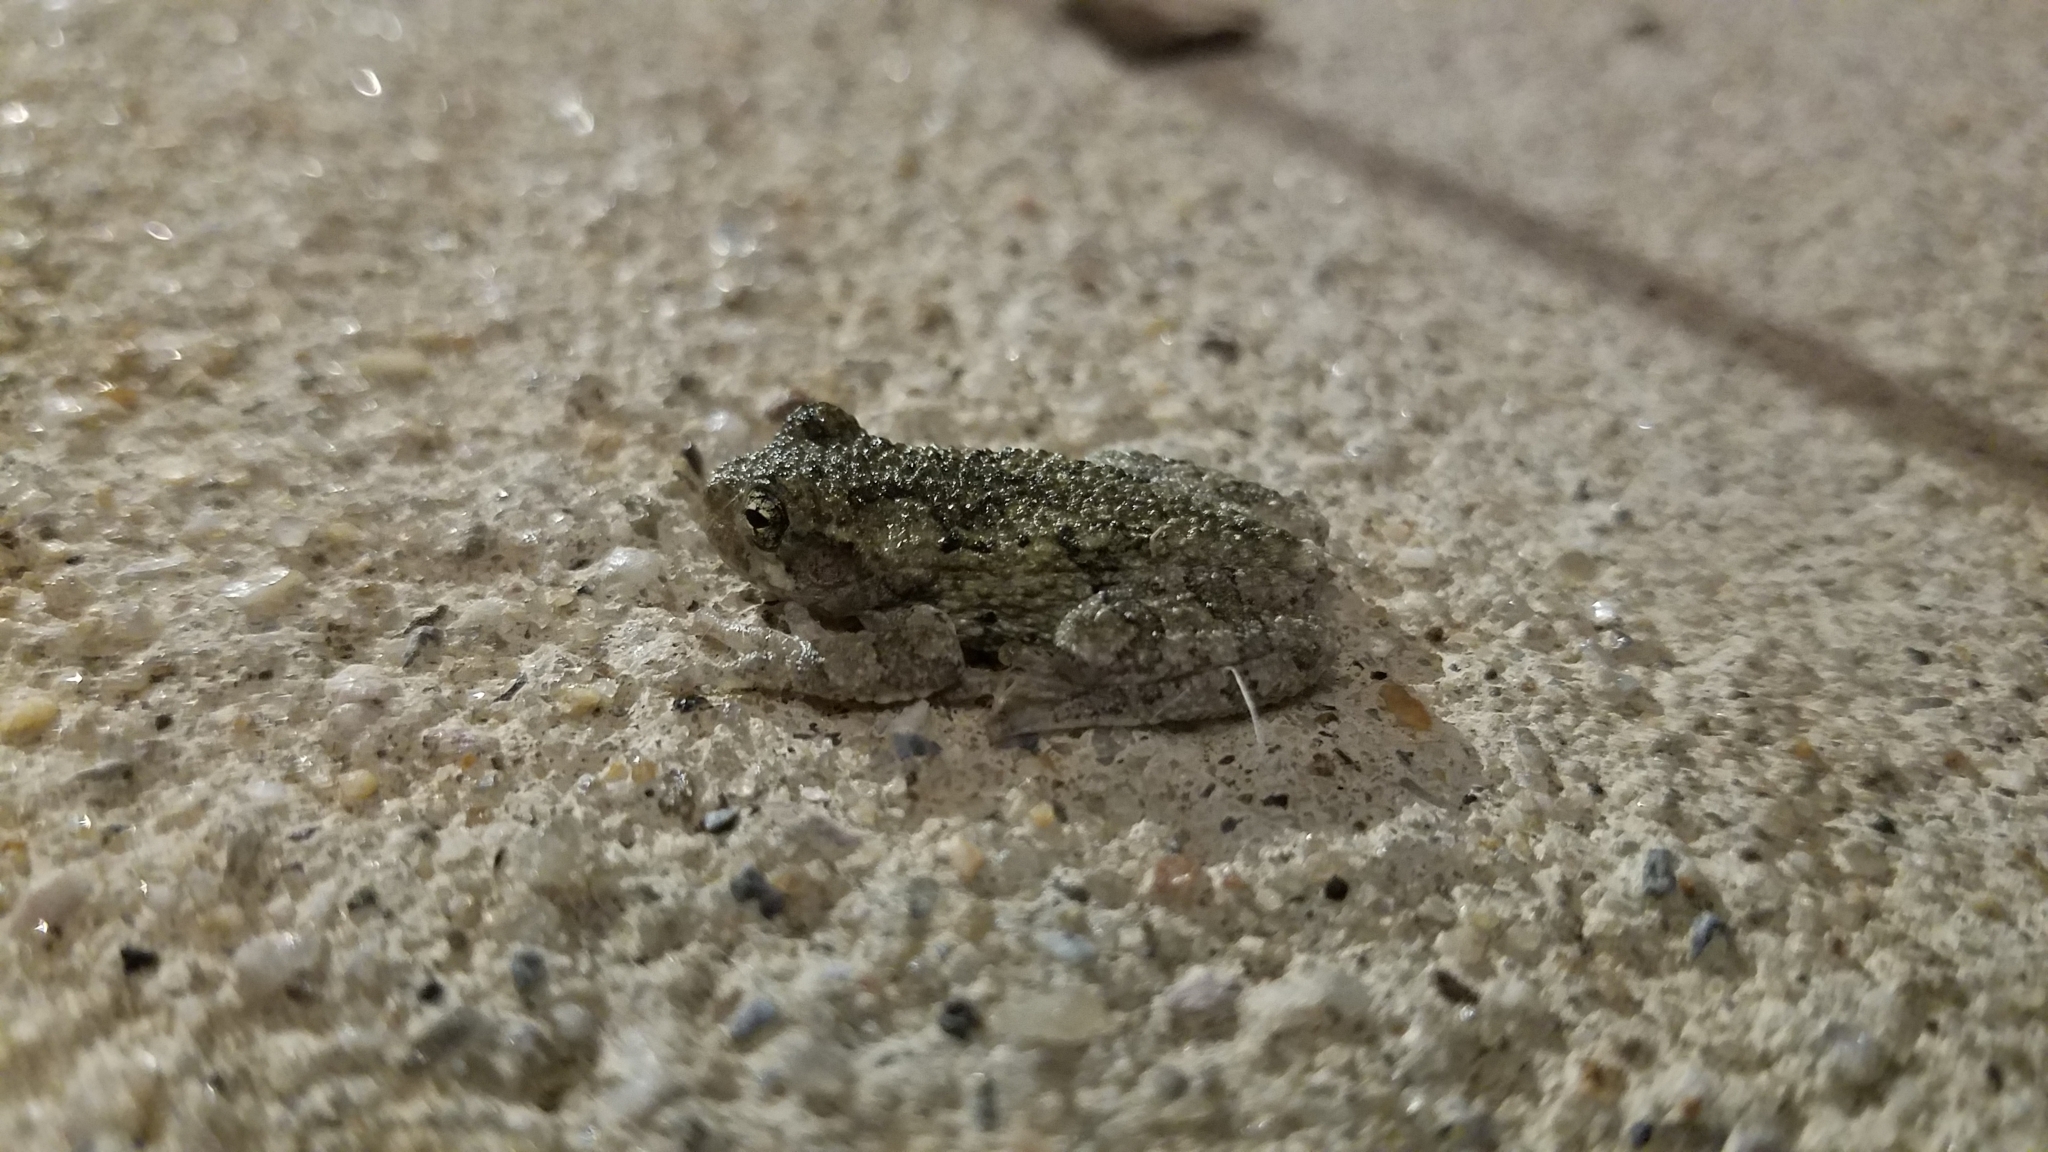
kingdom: Animalia
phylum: Chordata
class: Amphibia
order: Anura
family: Hylidae
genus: Hyla
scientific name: Hyla
